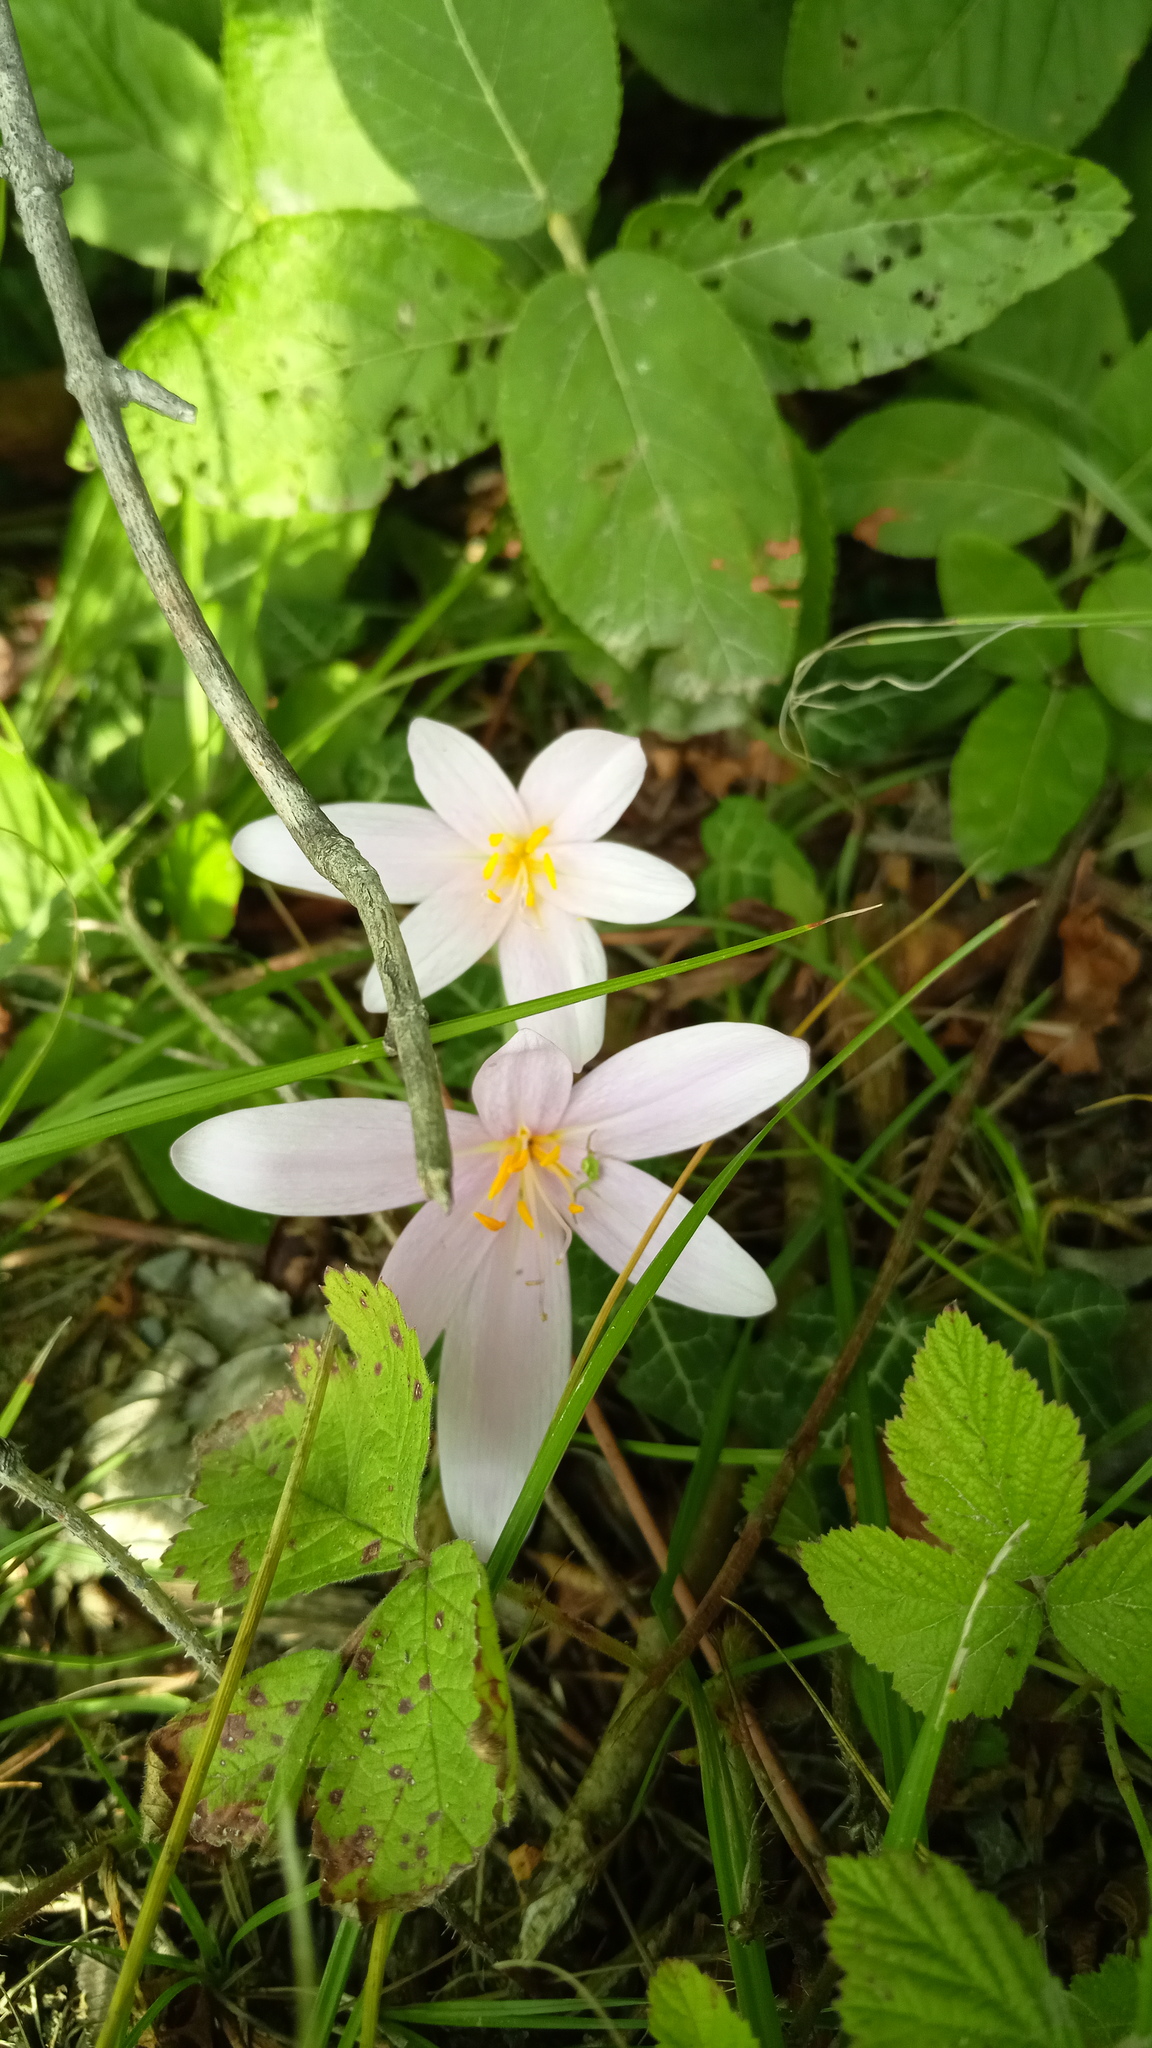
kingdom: Plantae
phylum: Tracheophyta
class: Liliopsida
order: Liliales
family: Colchicaceae
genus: Colchicum
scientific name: Colchicum autumnale
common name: Autumn crocus
